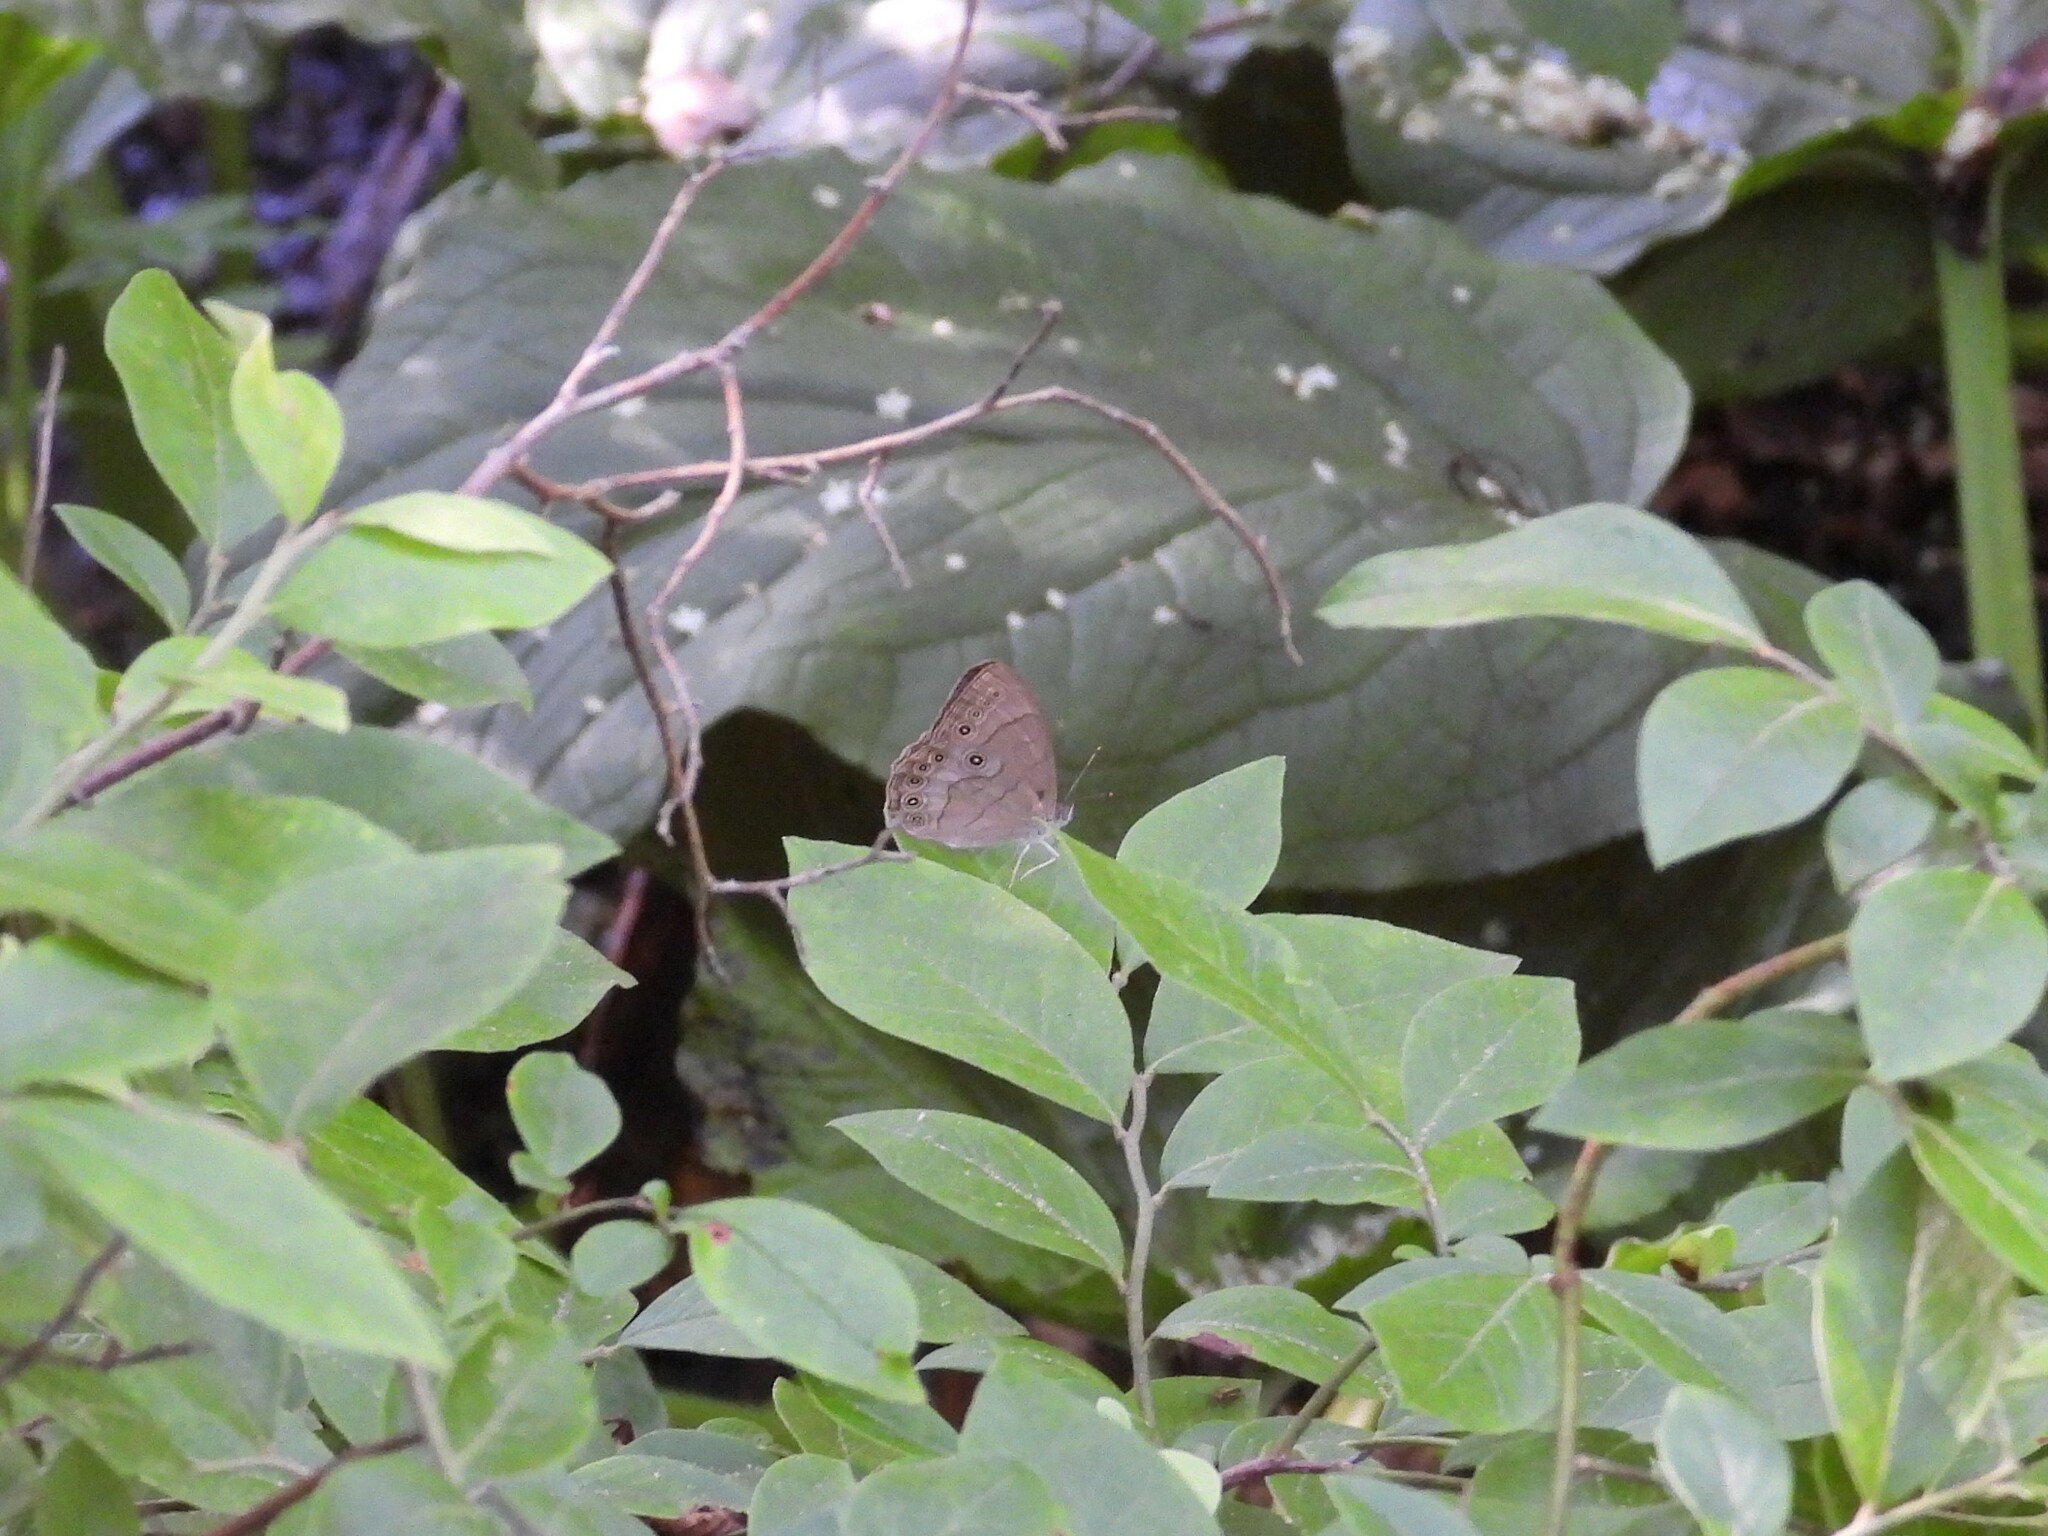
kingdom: Animalia
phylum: Arthropoda
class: Insecta
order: Lepidoptera
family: Nymphalidae
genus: Lethe
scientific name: Lethe eurydice
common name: Eyed brown
